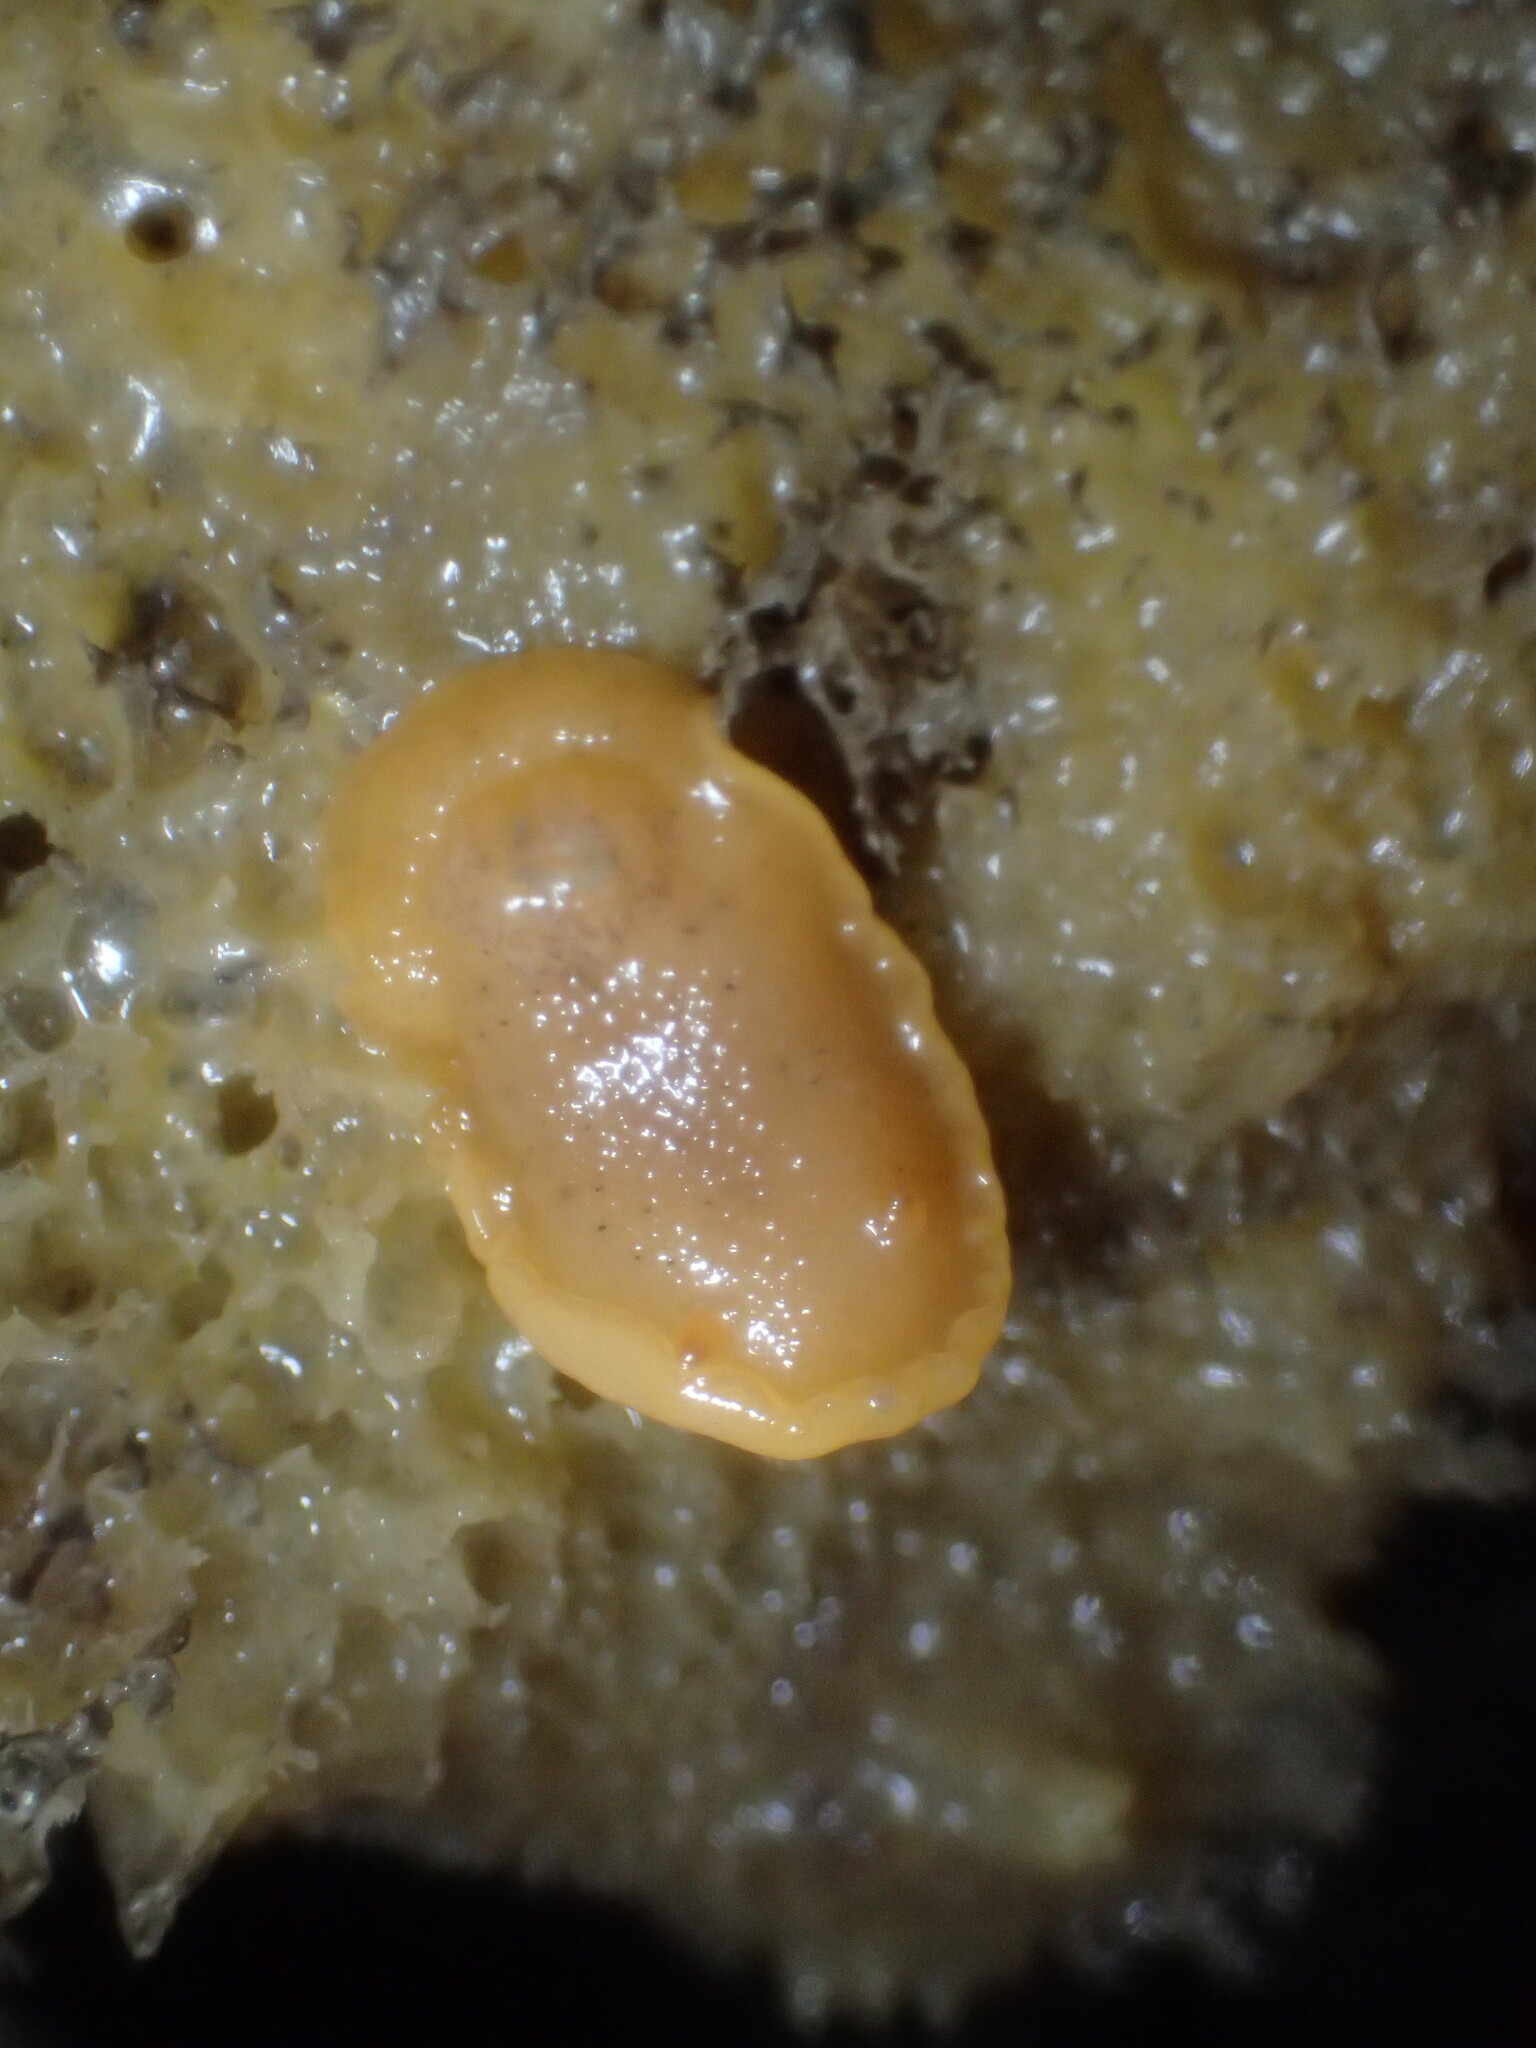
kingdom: Animalia
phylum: Mollusca
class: Gastropoda
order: Nudibranchia
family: Dorididae
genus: Doris
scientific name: Doris montereyensis
